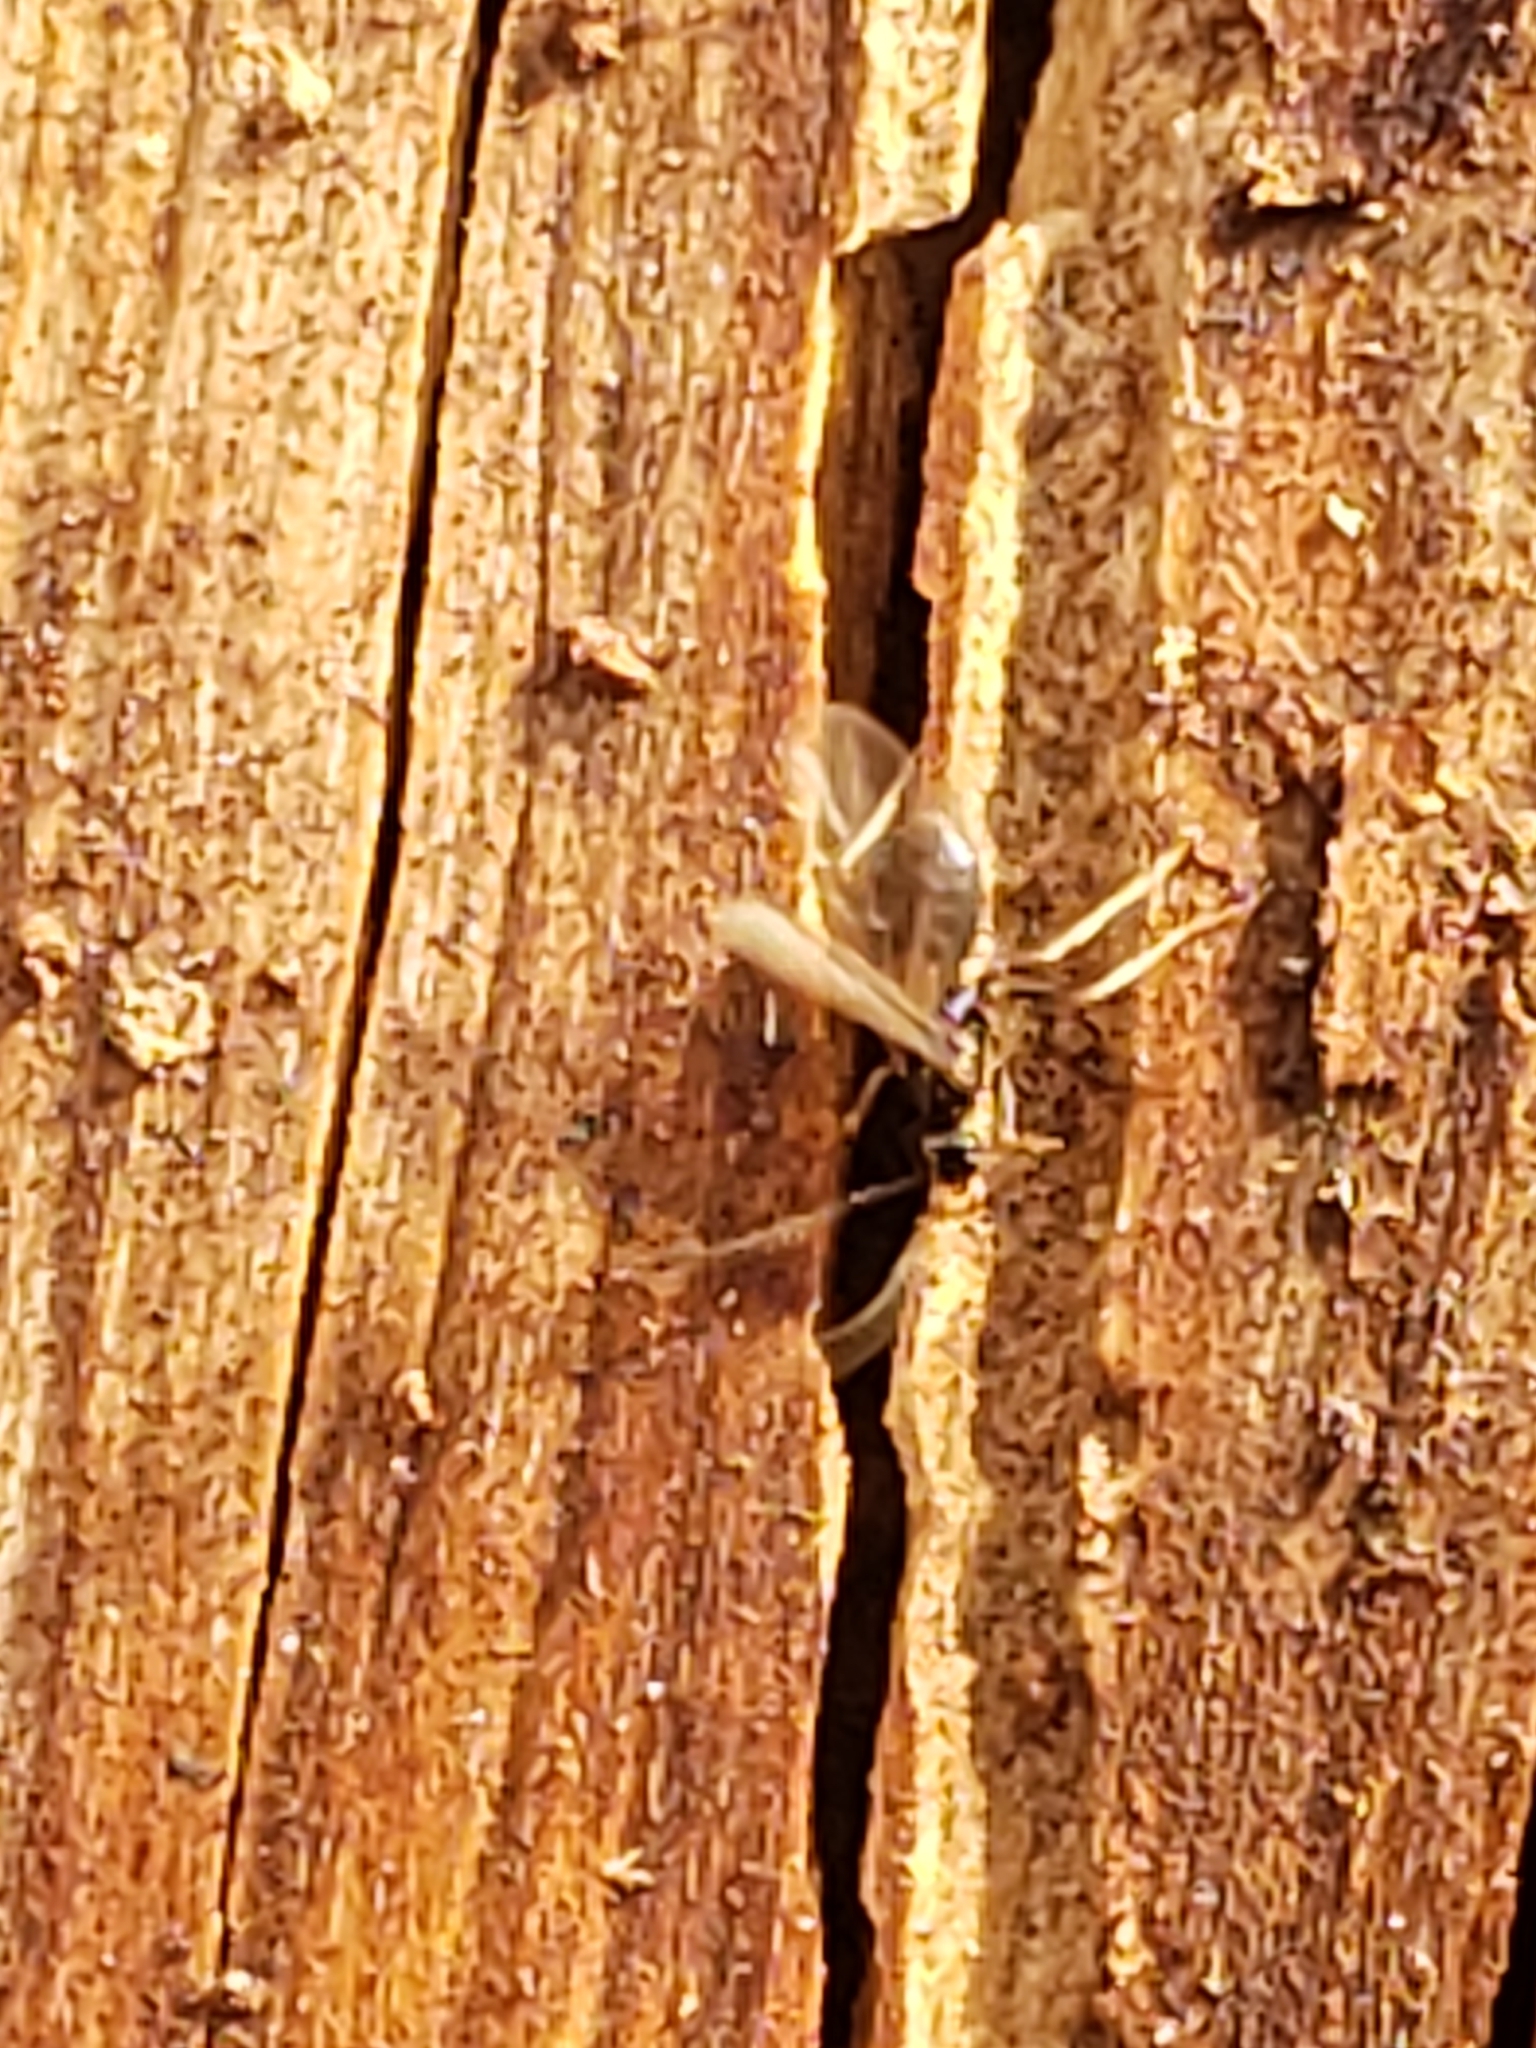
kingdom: Animalia
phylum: Arthropoda
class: Insecta
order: Hymenoptera
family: Formicidae
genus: Prenolepis
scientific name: Prenolepis imparis
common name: Small honey ant
